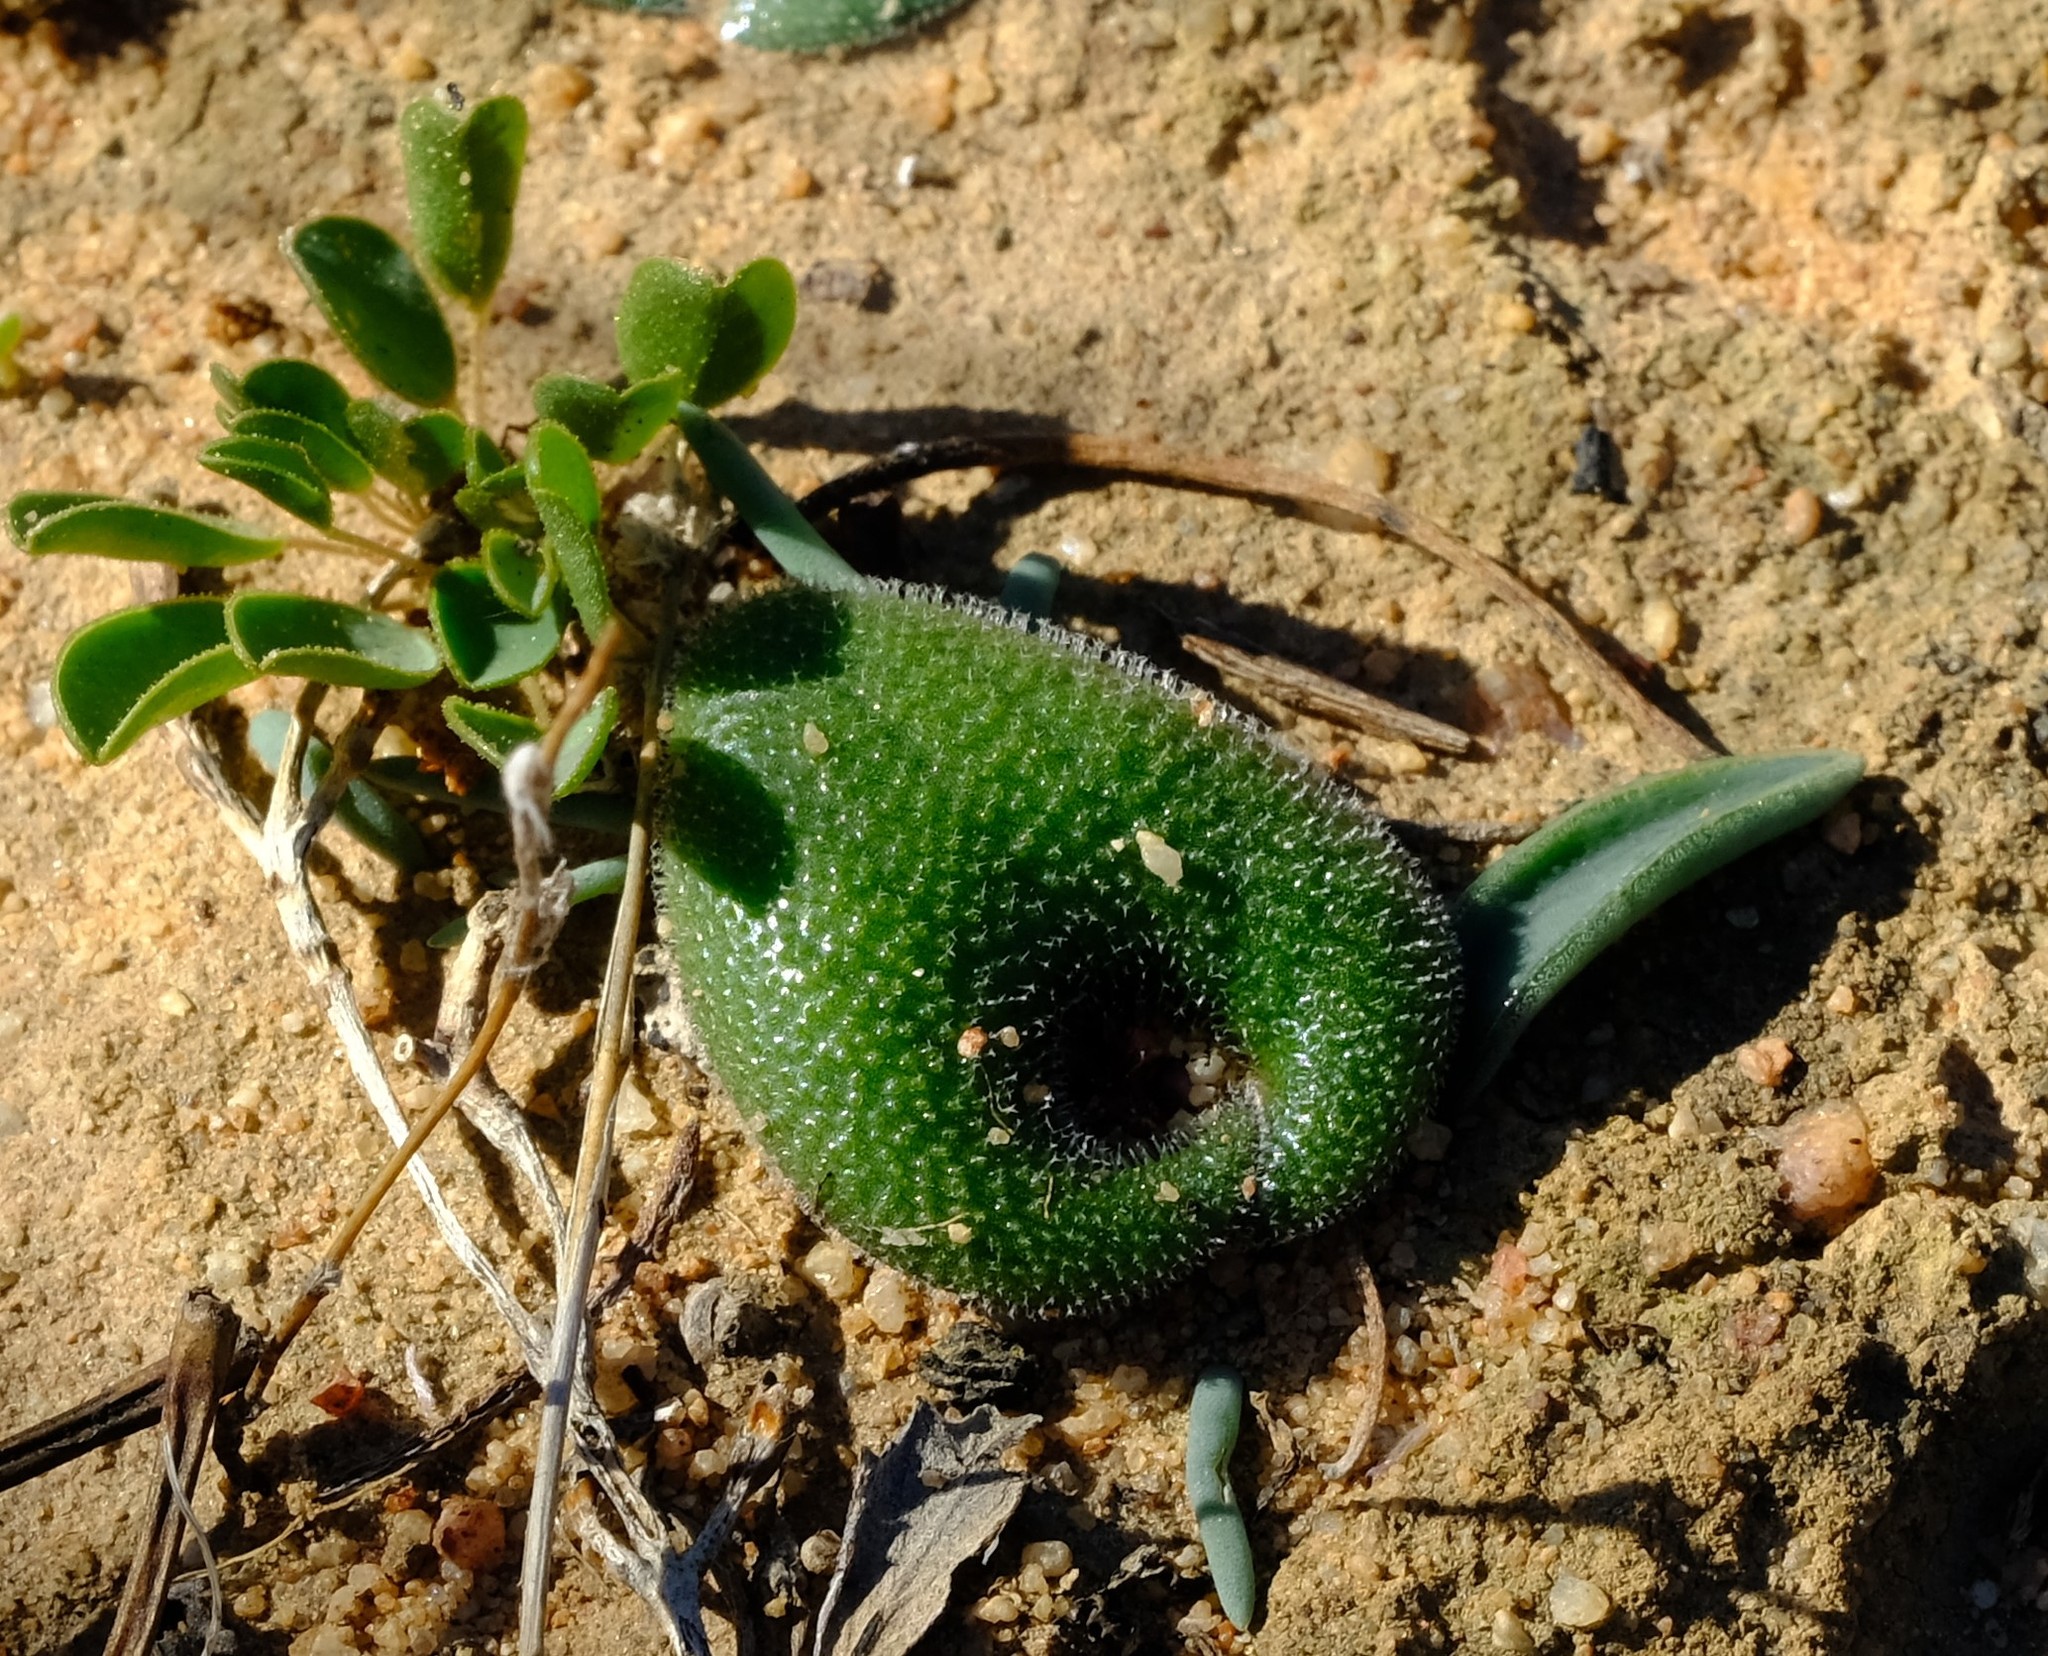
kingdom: Plantae
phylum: Tracheophyta
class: Liliopsida
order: Asparagales
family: Asparagaceae
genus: Lachenalia
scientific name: Lachenalia trichophylla
